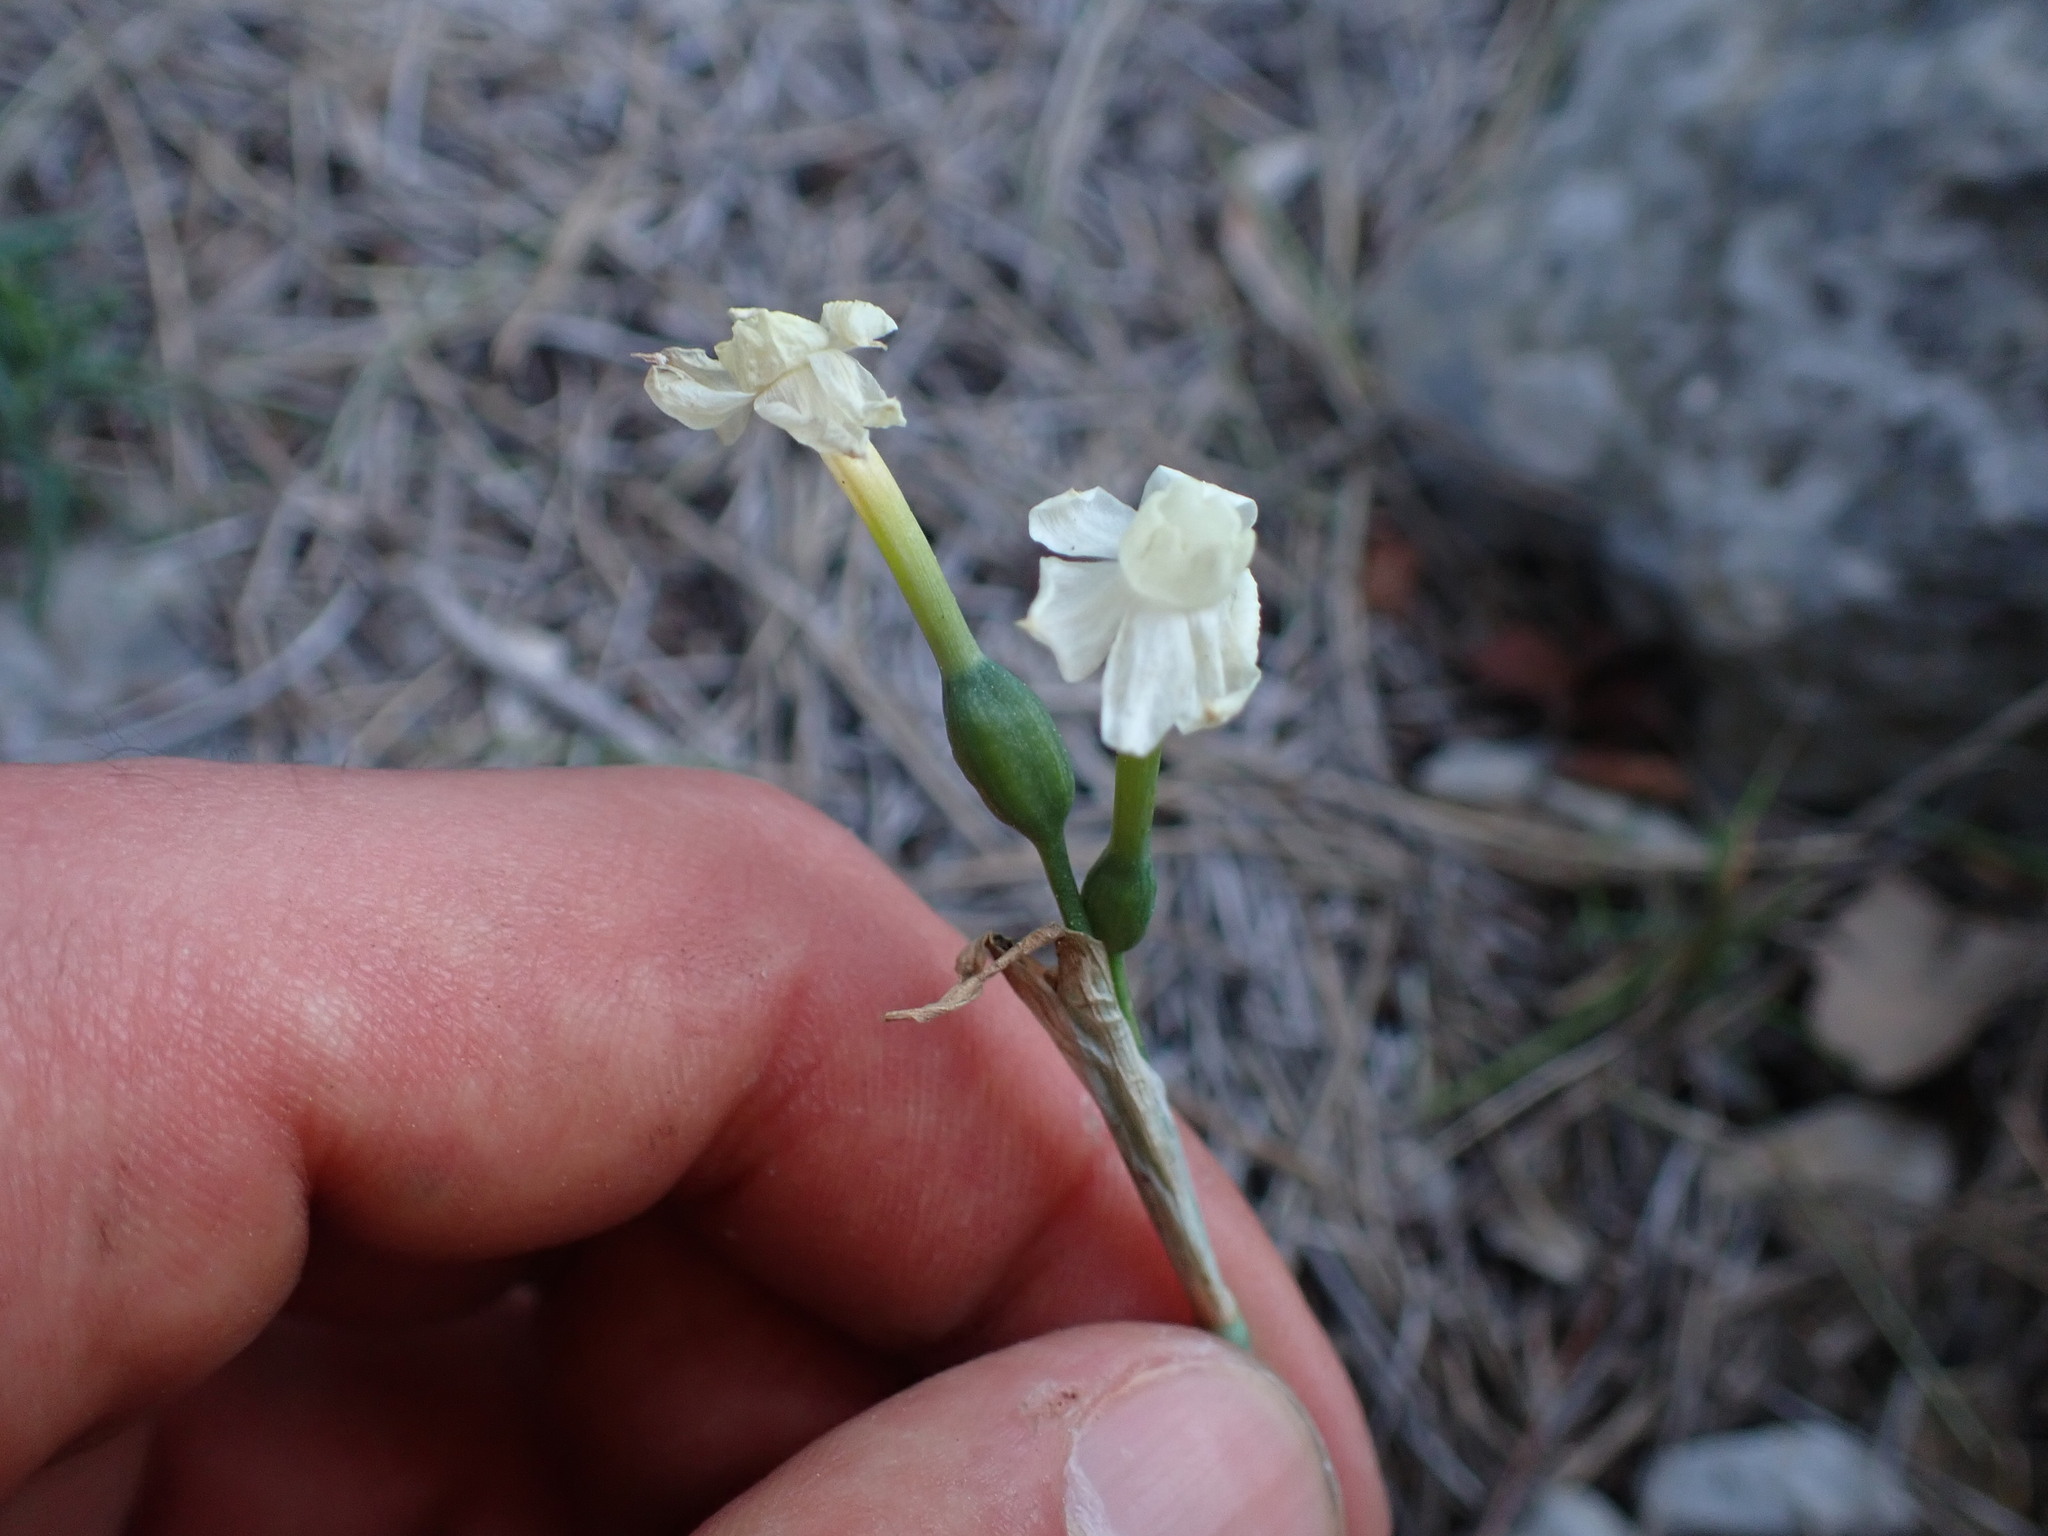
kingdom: Plantae
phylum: Tracheophyta
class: Liliopsida
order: Asparagales
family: Amaryllidaceae
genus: Narcissus
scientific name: Narcissus dubius
